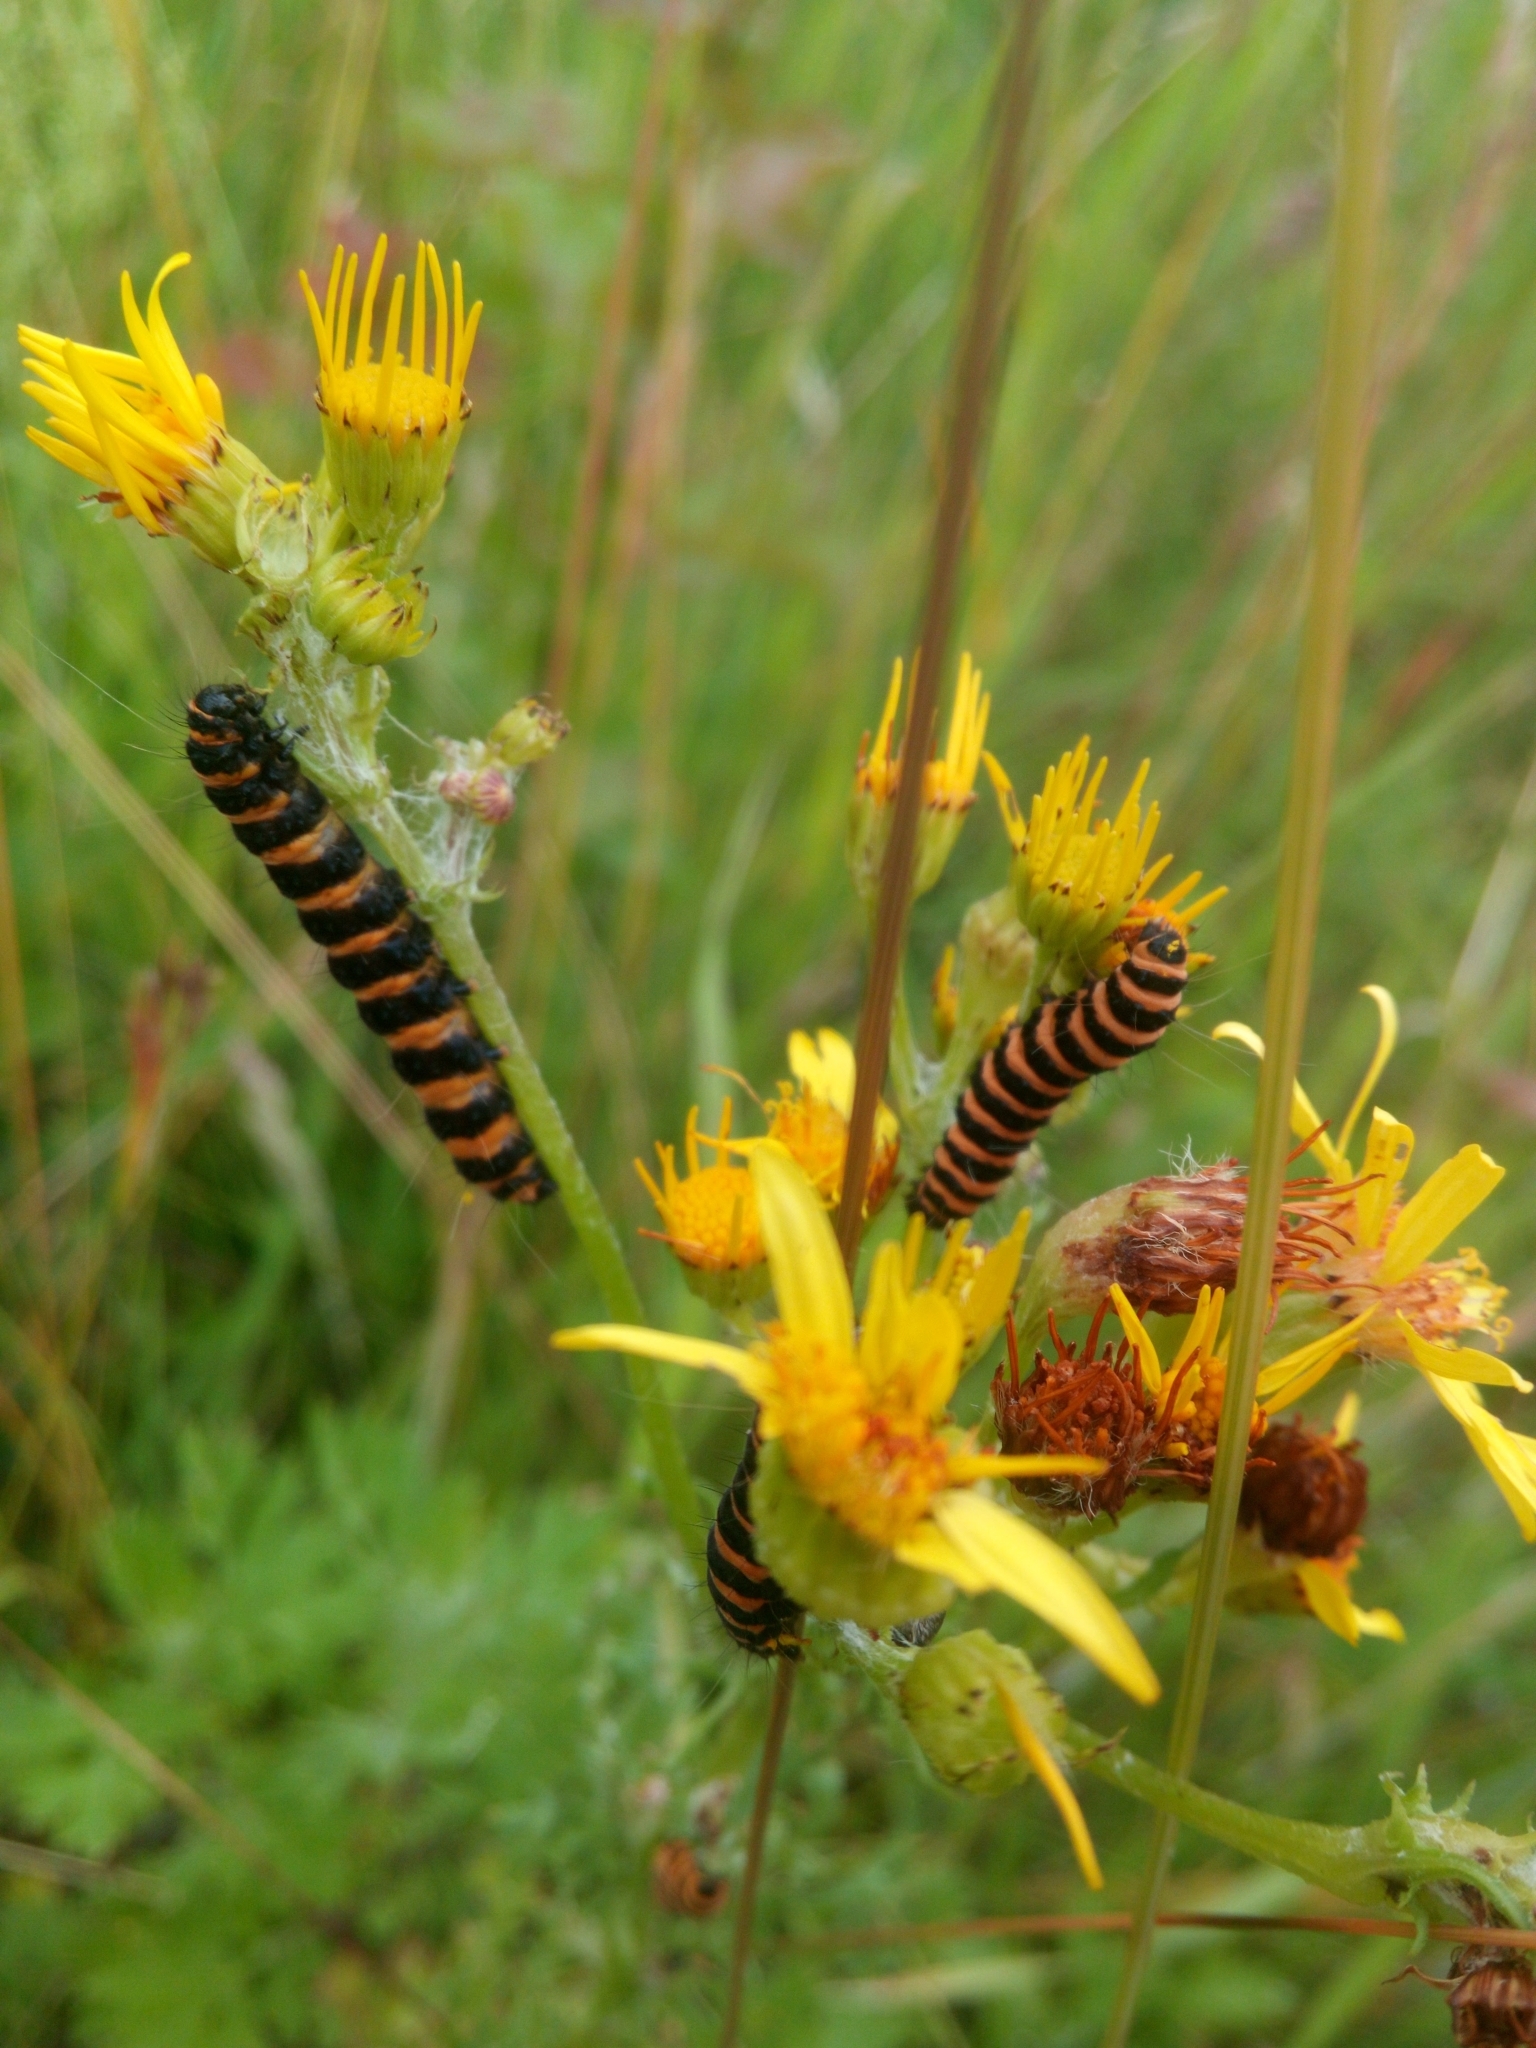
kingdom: Animalia
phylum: Arthropoda
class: Insecta
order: Lepidoptera
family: Erebidae
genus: Tyria
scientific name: Tyria jacobaeae
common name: Cinnabar
